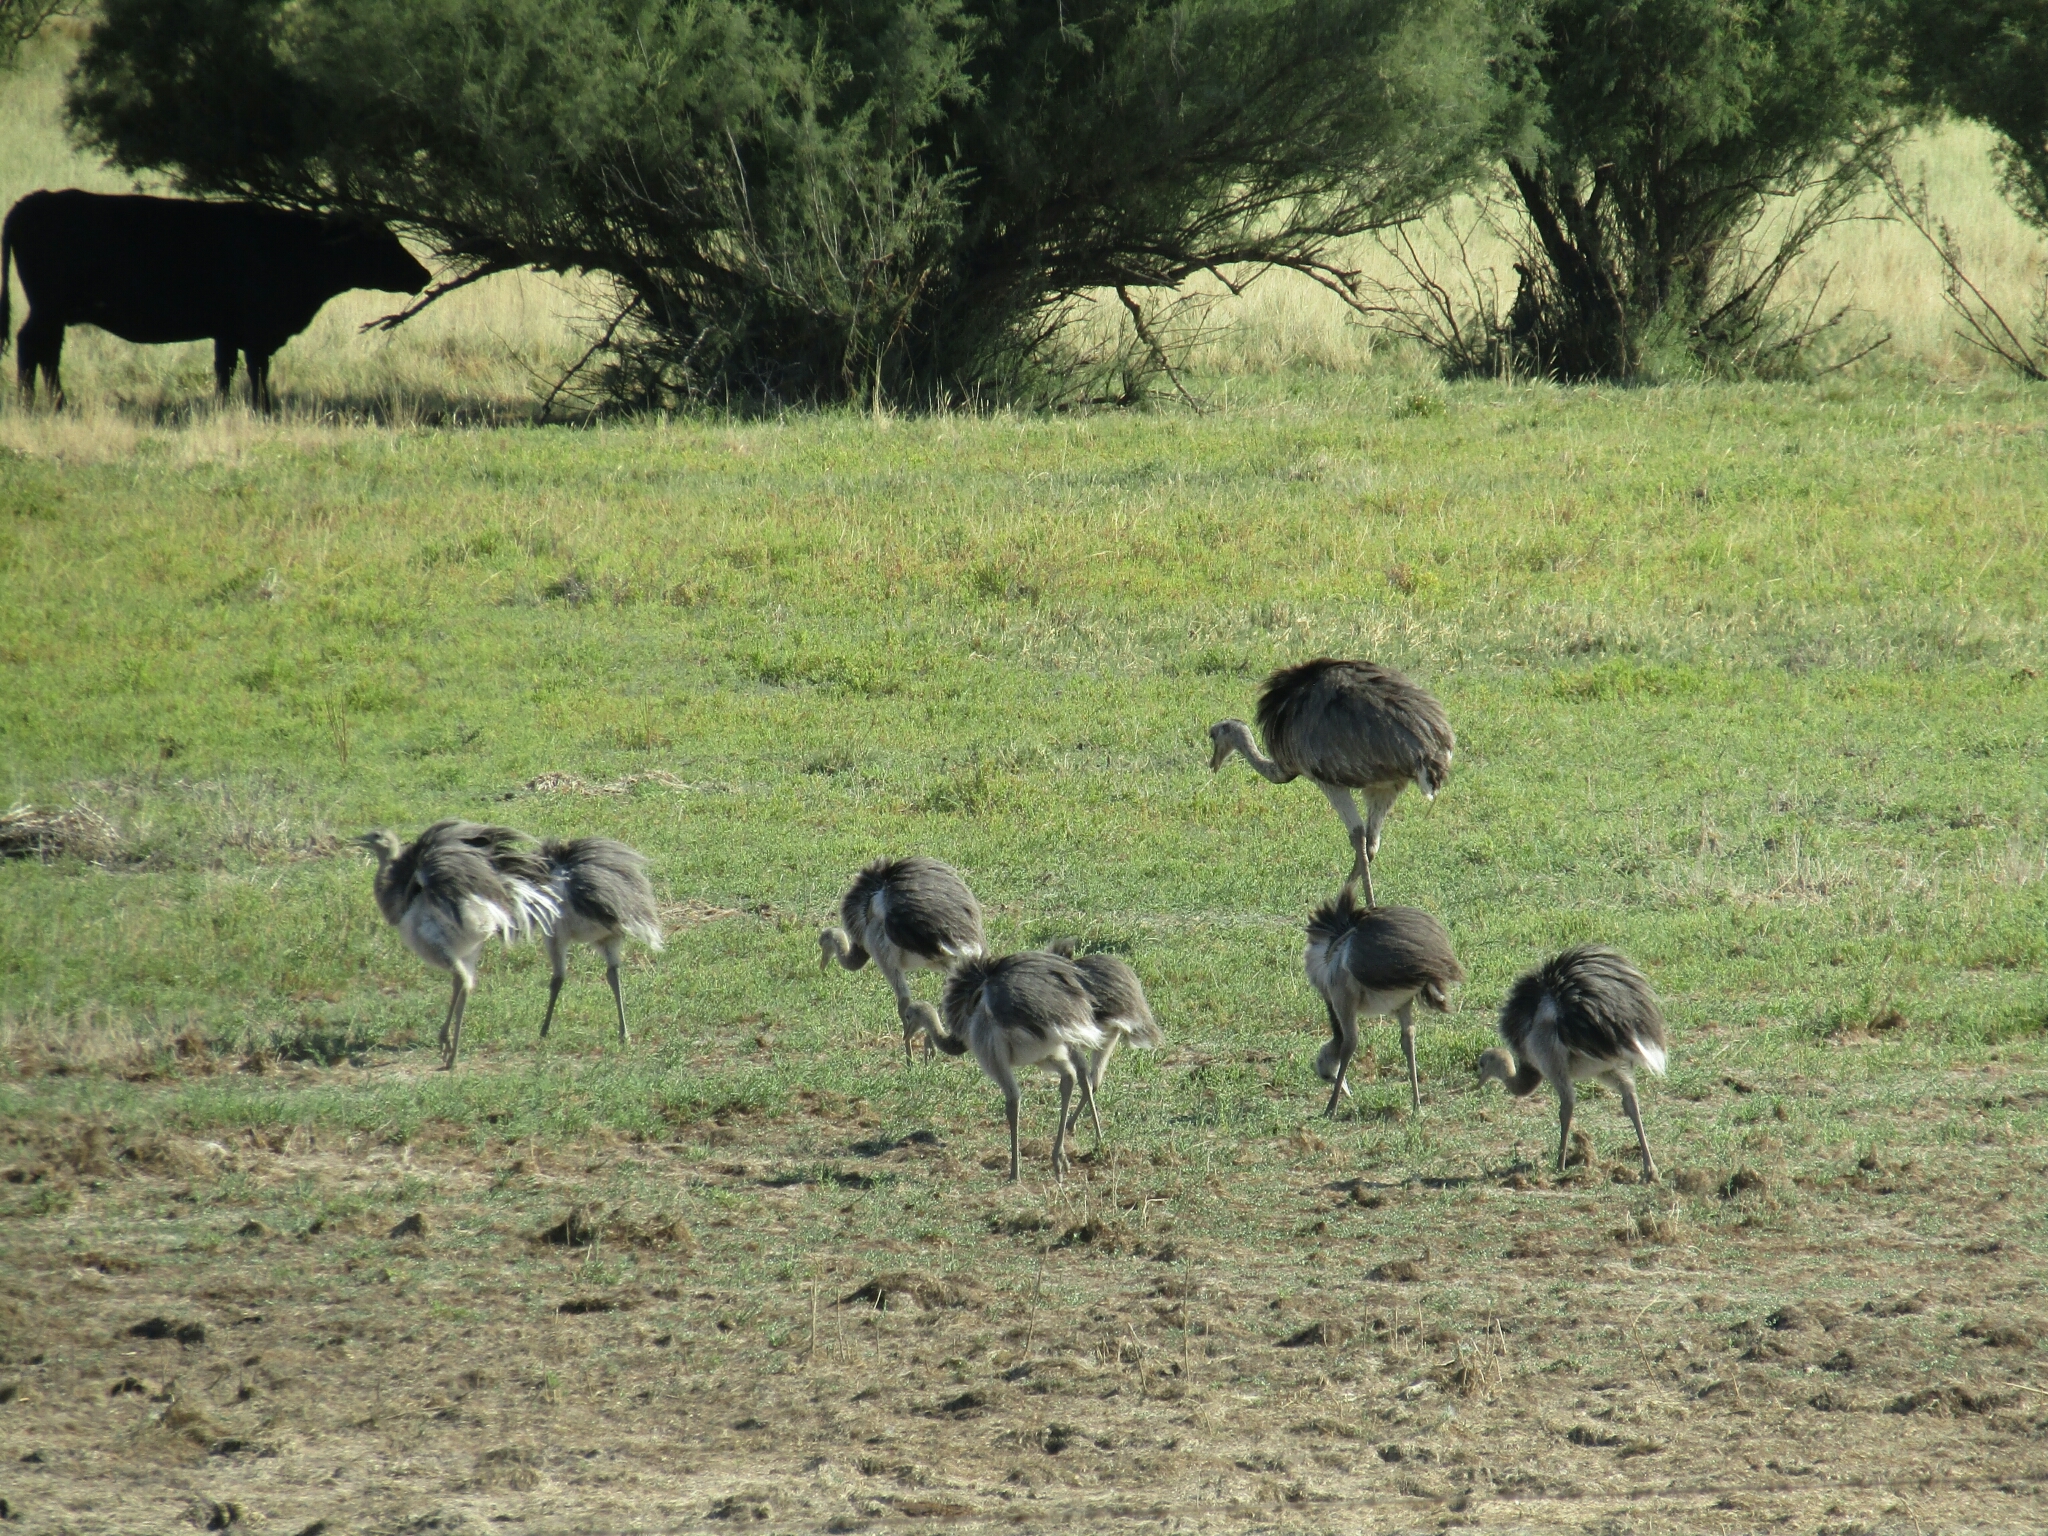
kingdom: Animalia
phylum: Chordata
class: Aves
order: Rheiformes
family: Rheidae
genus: Rhea
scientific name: Rhea americana
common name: Greater rhea
